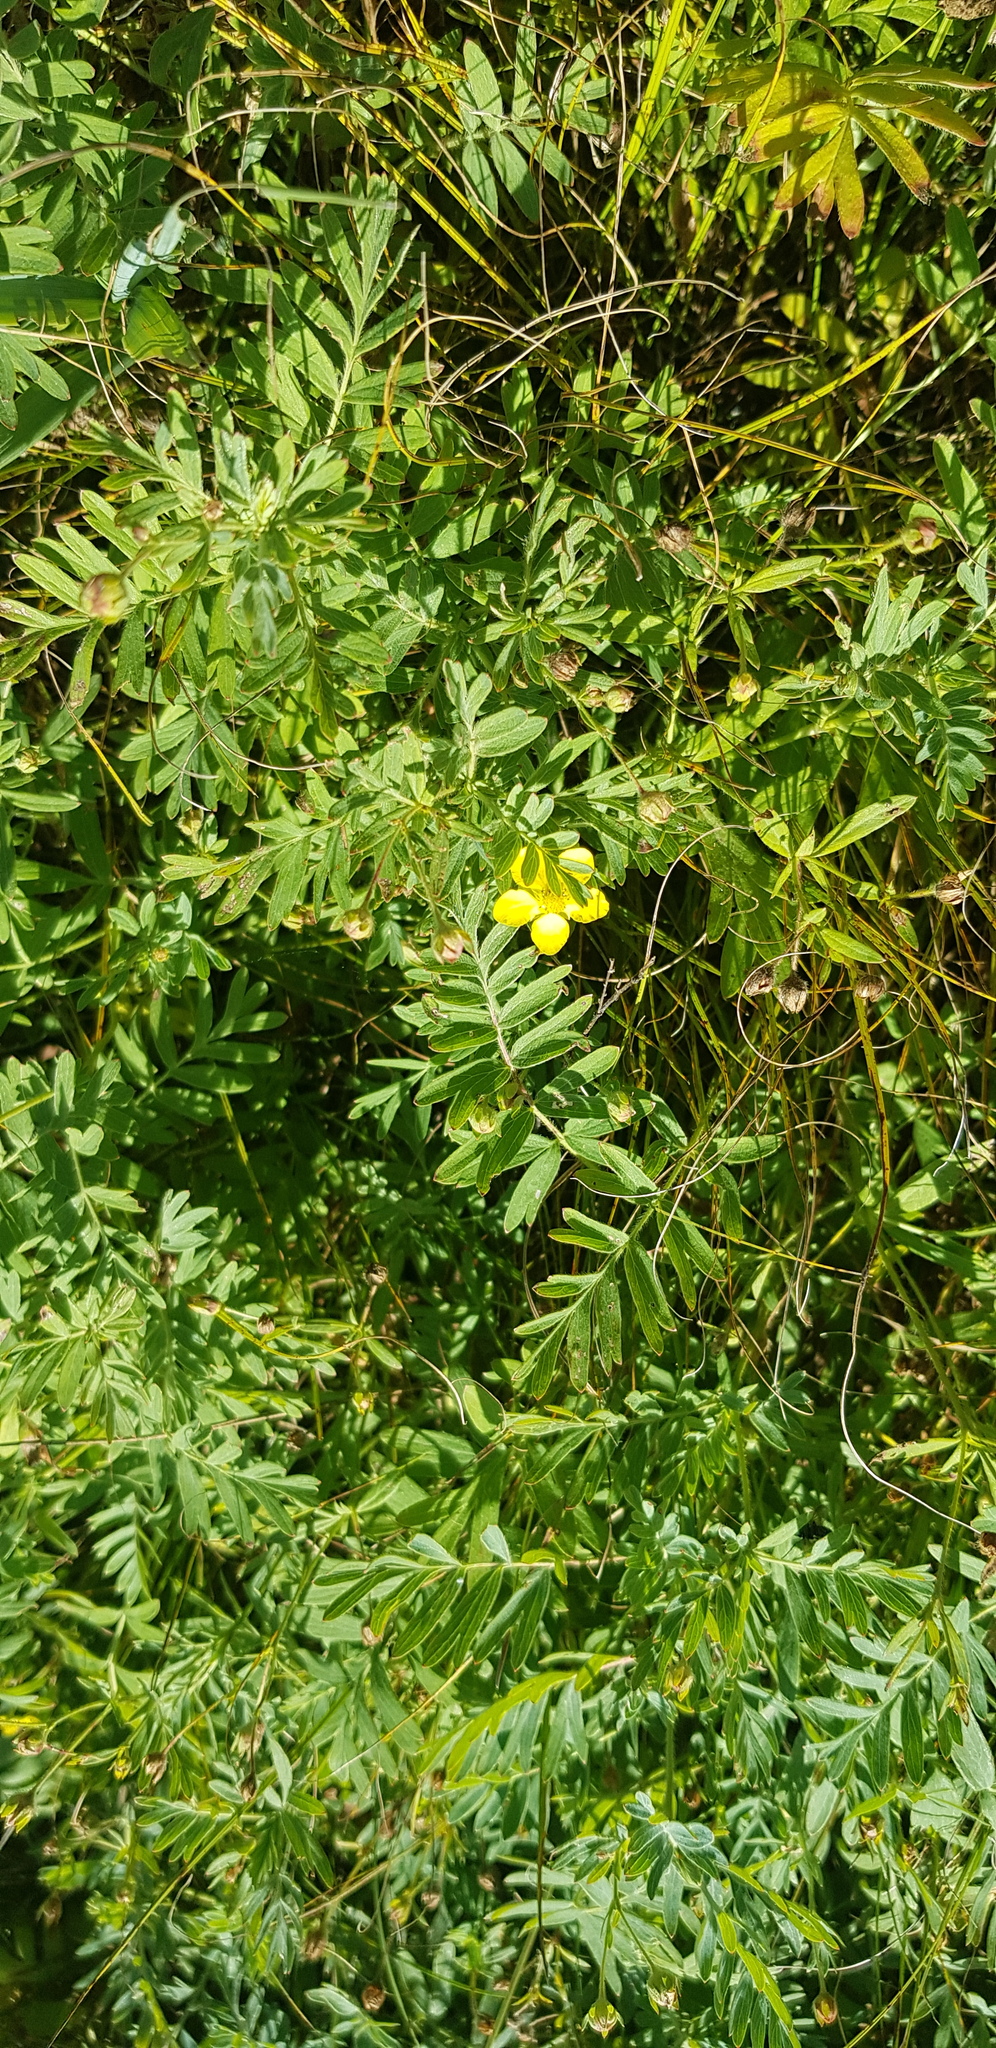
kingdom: Plantae
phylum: Tracheophyta
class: Magnoliopsida
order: Rosales
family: Rosaceae
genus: Sibbaldianthe
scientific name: Sibbaldianthe bifurca
